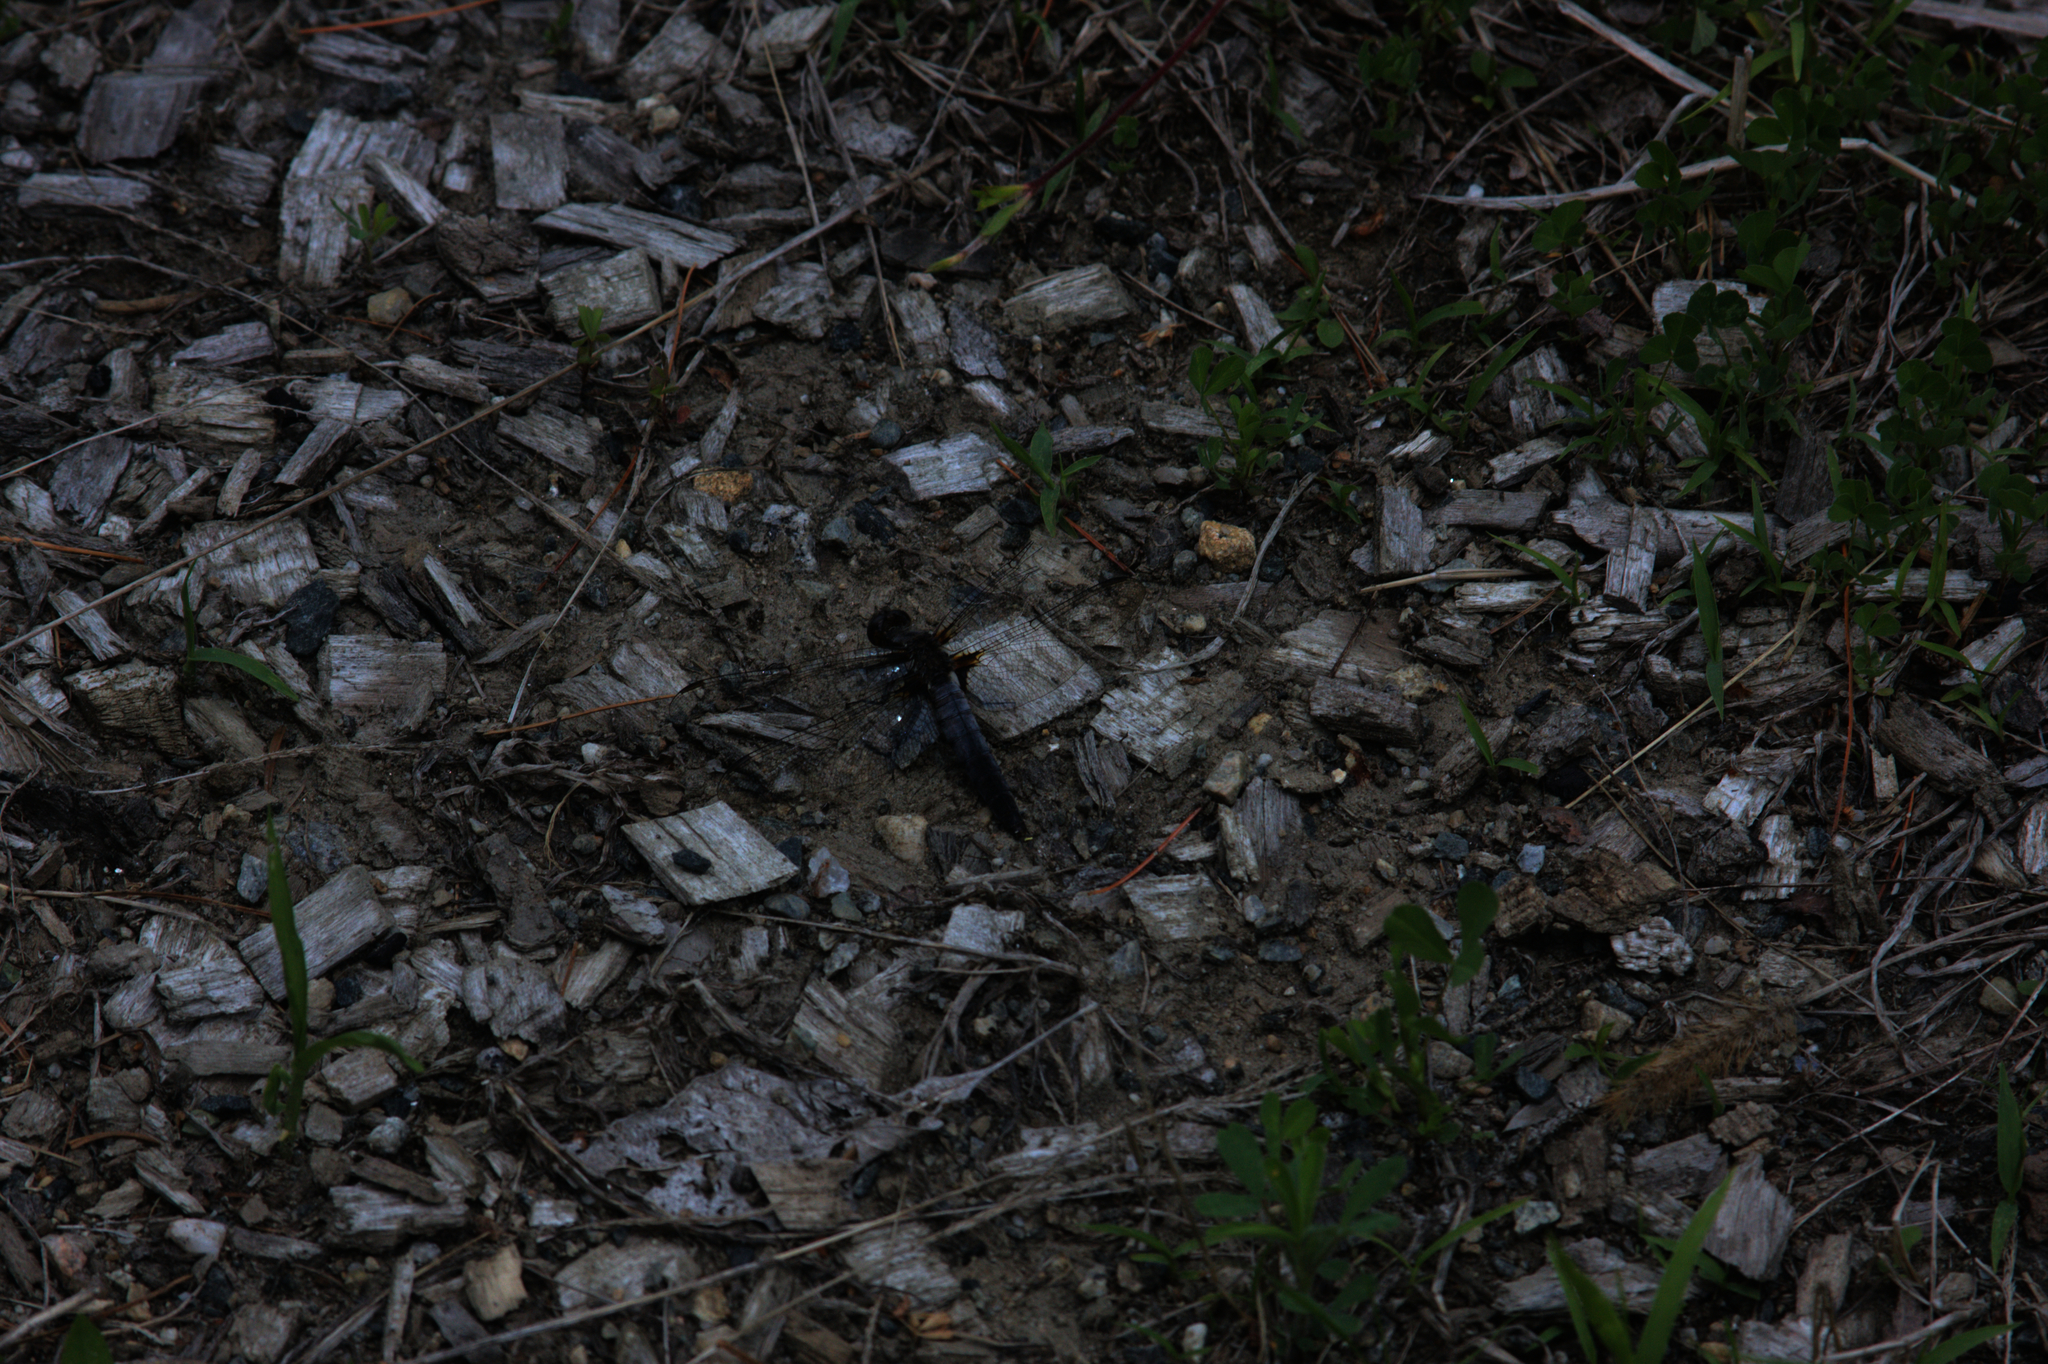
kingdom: Animalia
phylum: Arthropoda
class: Insecta
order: Odonata
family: Libellulidae
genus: Ladona
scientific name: Ladona julia
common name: Chalk-fronted corporal
